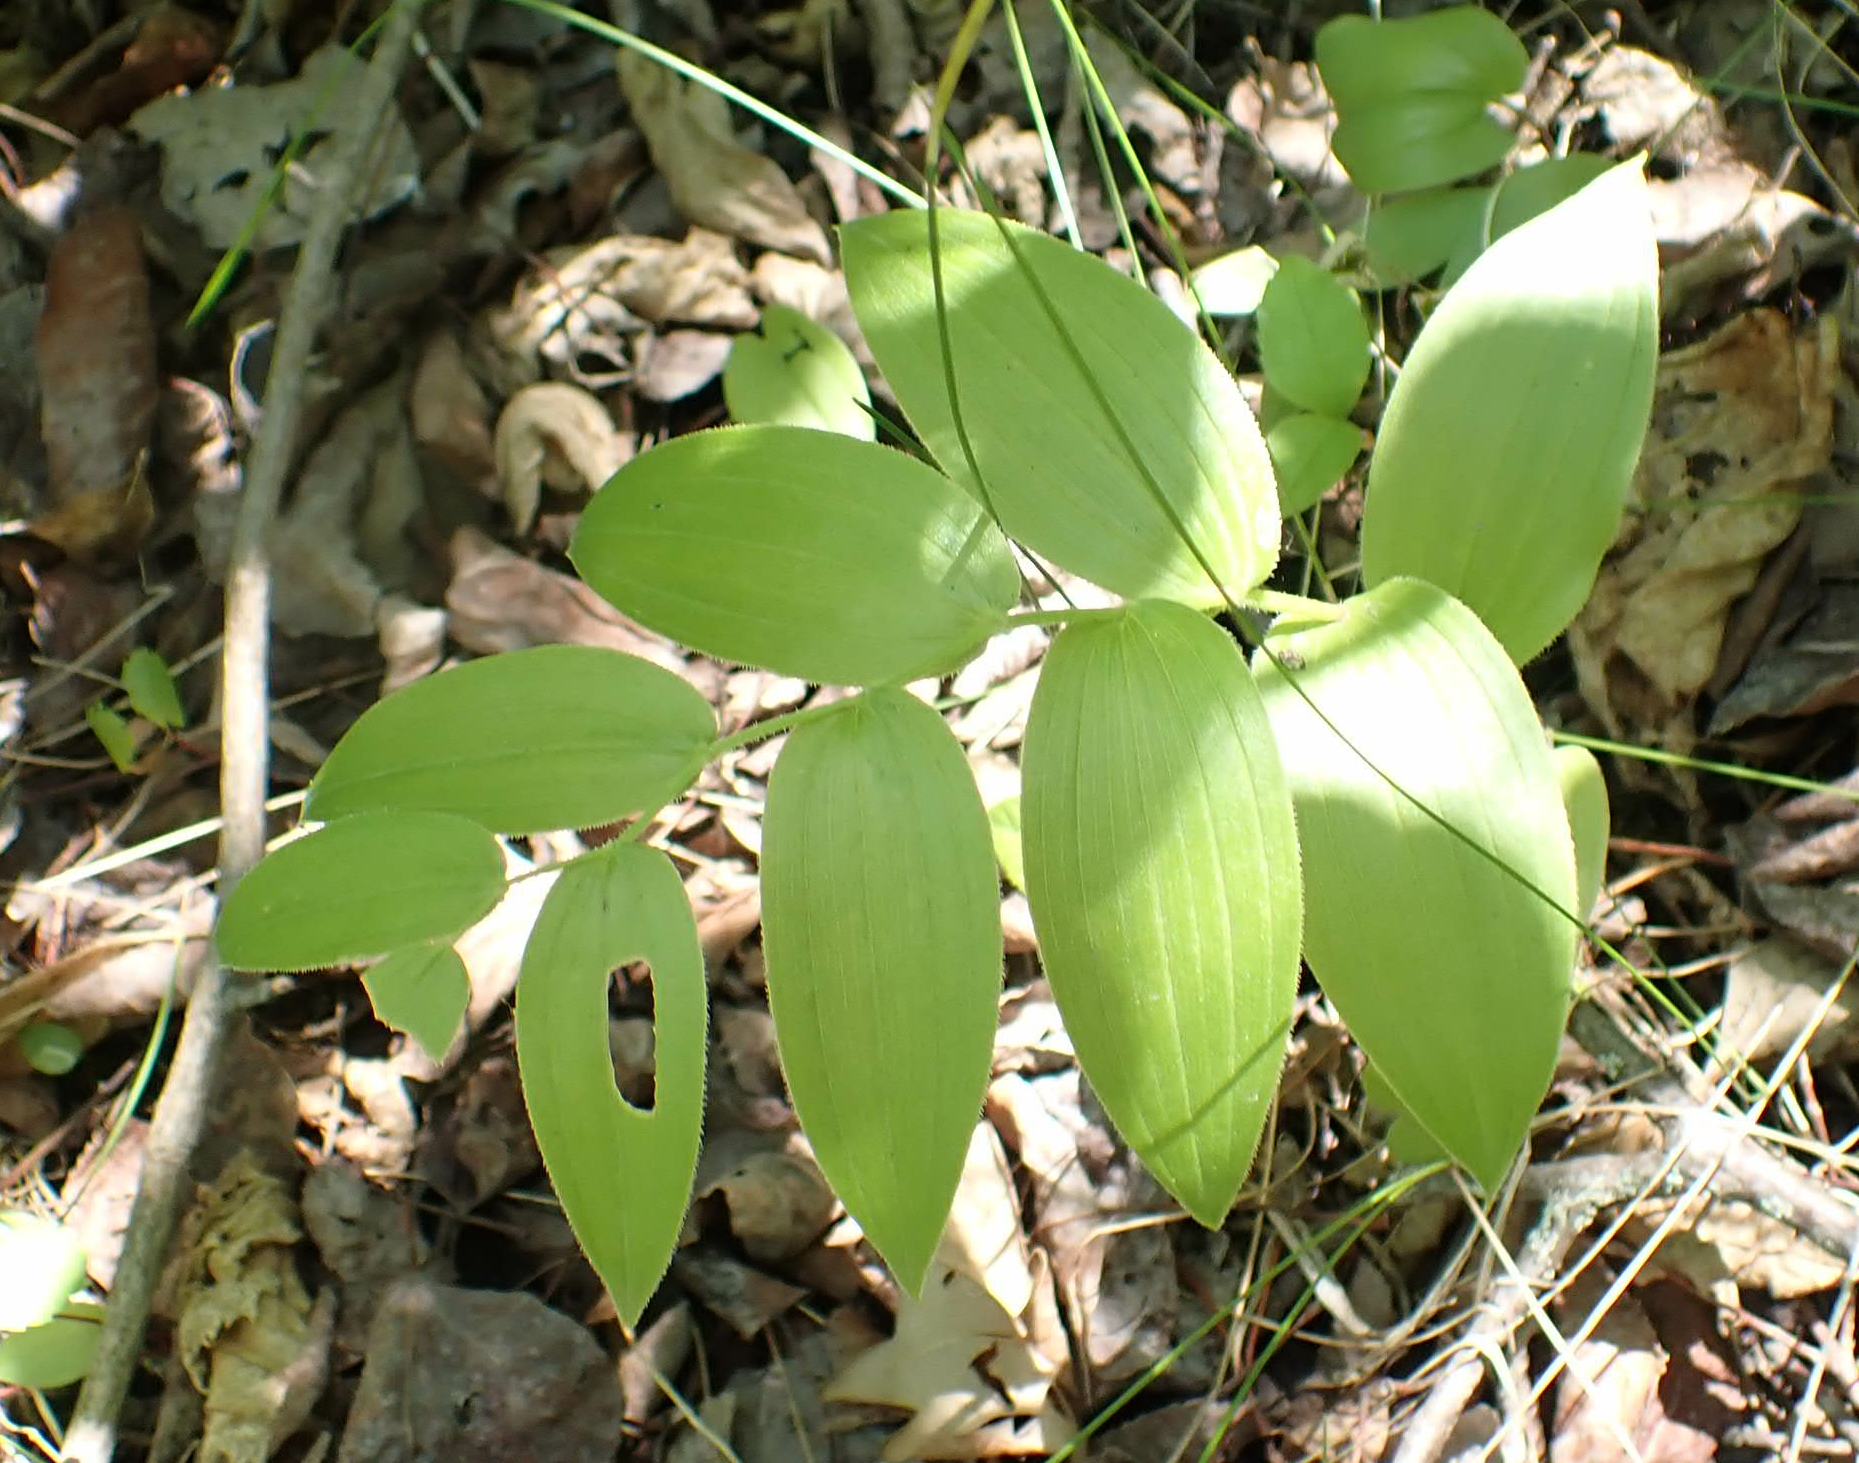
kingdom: Plantae
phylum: Tracheophyta
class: Liliopsida
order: Liliales
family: Liliaceae
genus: Streptopus
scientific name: Streptopus lanceolatus
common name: Rose mandarin
